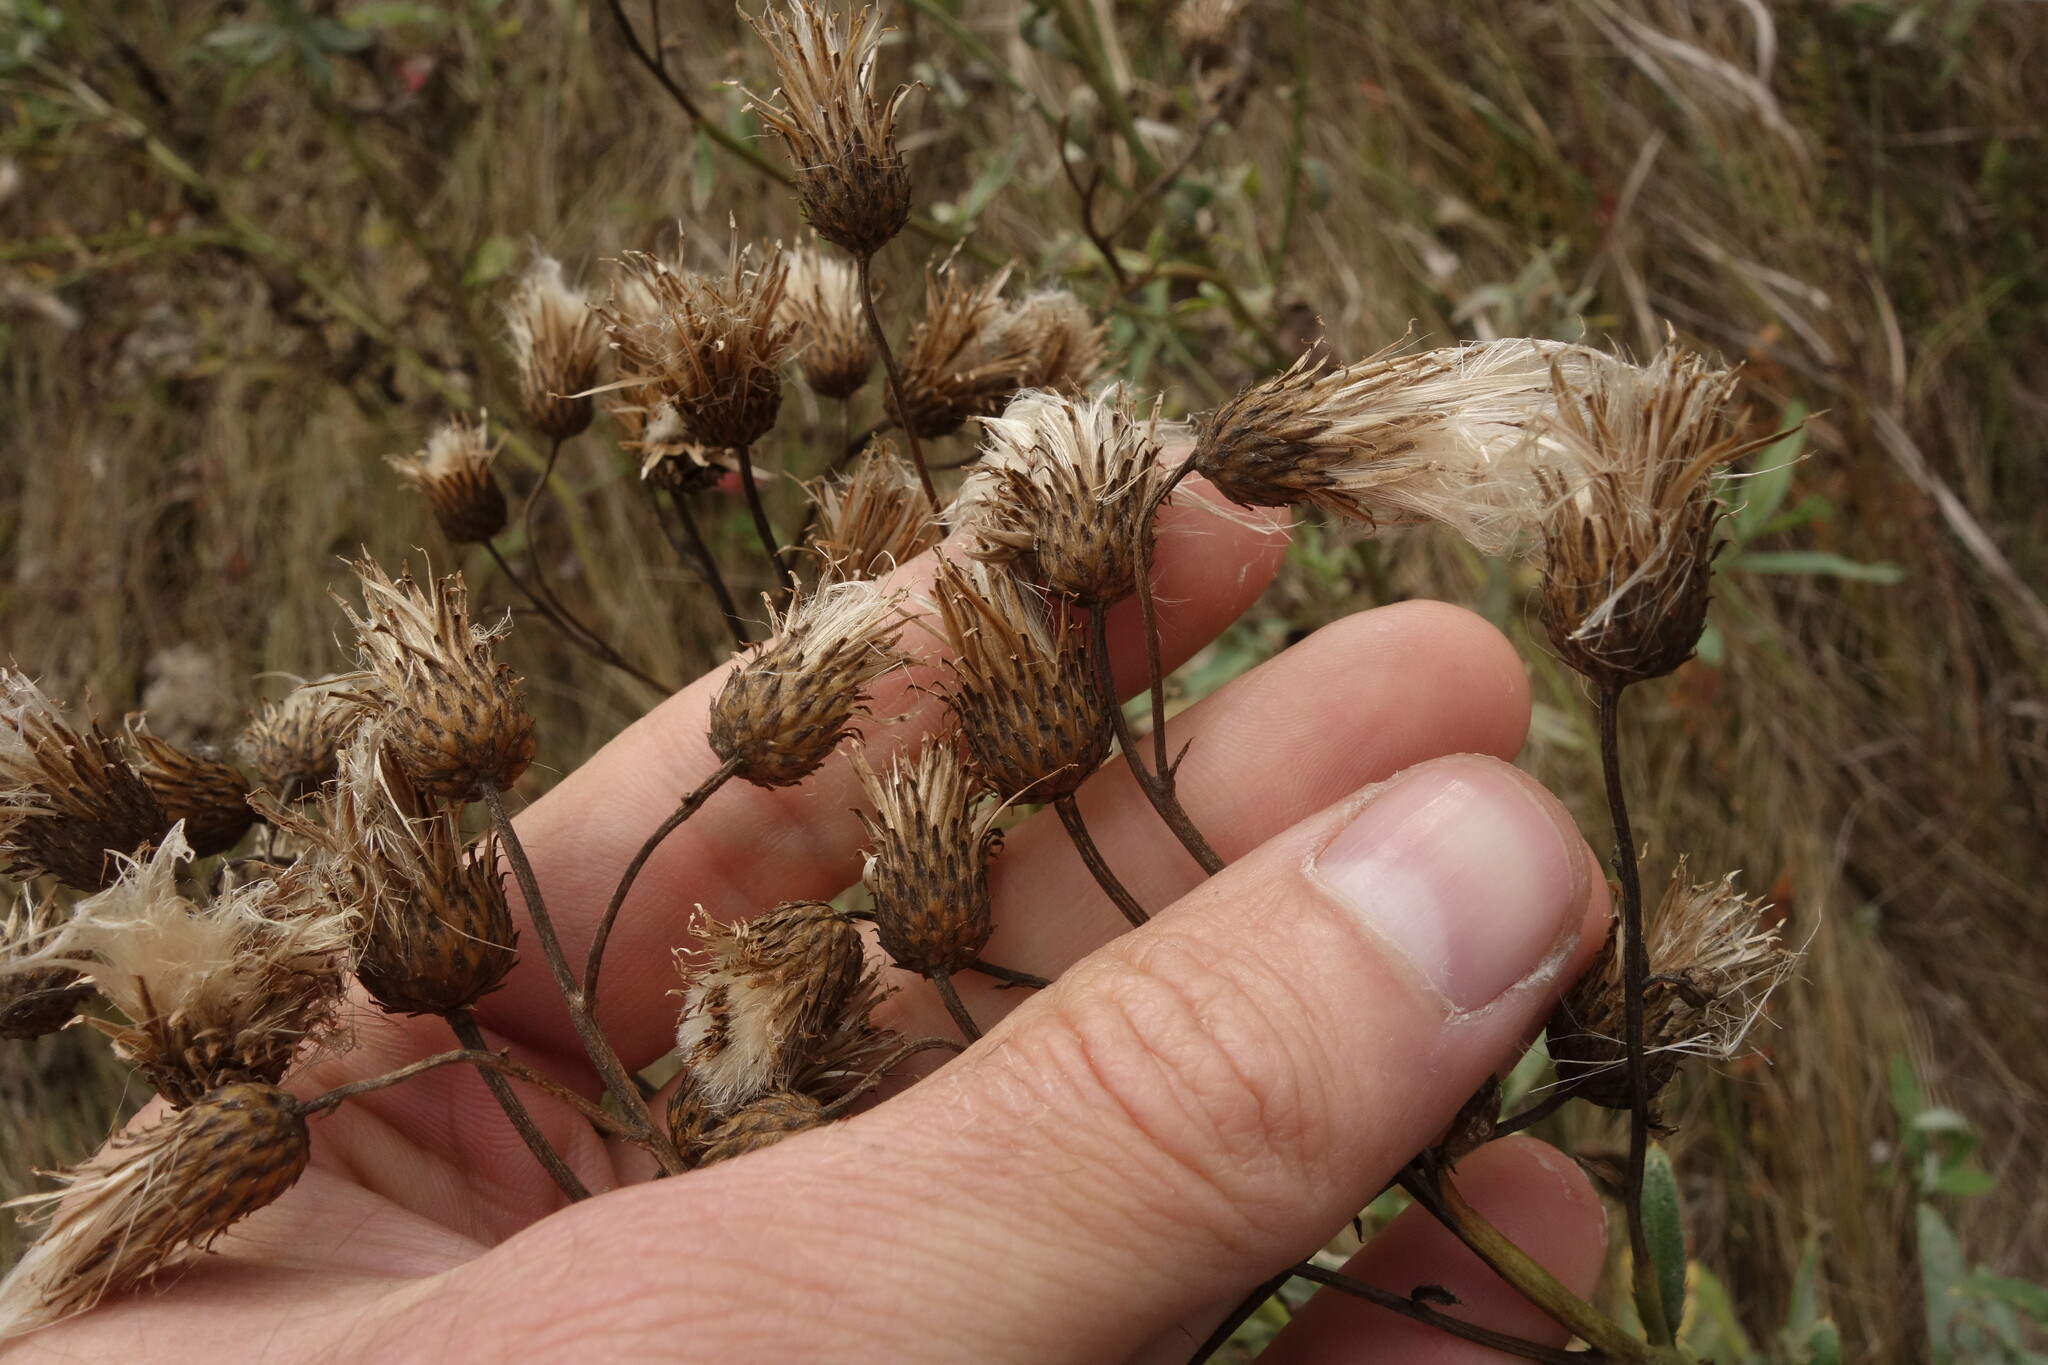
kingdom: Plantae
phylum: Tracheophyta
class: Magnoliopsida
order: Asterales
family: Asteraceae
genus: Cirsium
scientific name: Cirsium arvense
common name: Creeping thistle
